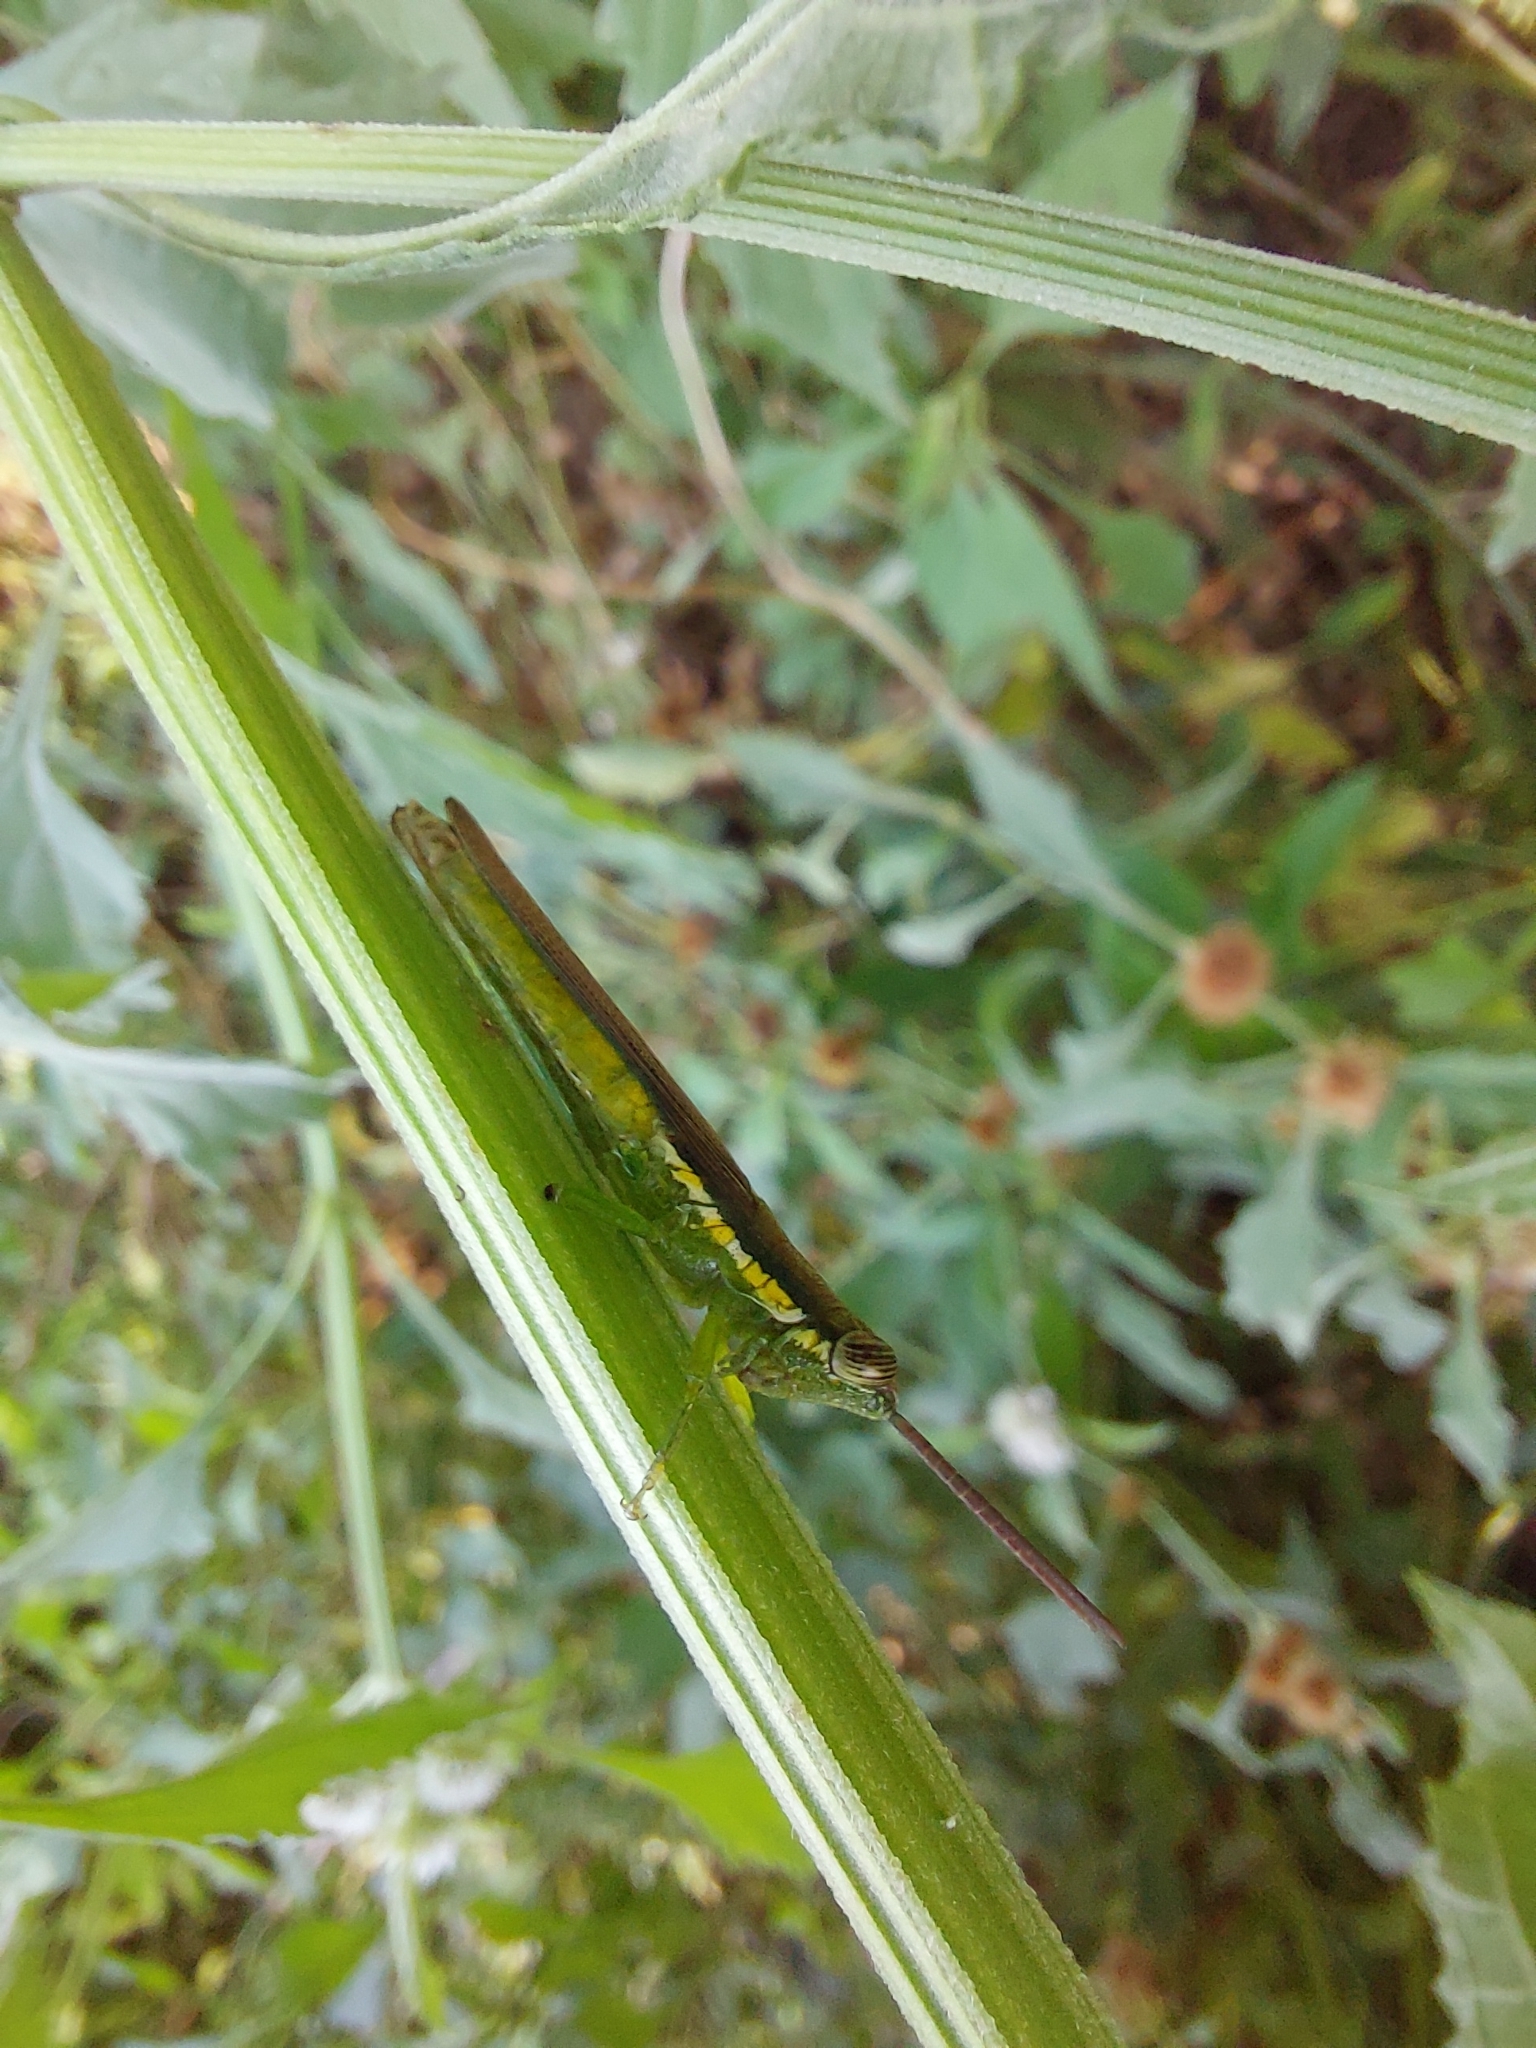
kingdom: Animalia
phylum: Arthropoda
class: Insecta
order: Orthoptera
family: Acrididae
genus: Stenopola
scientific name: Stenopola puncticeps
